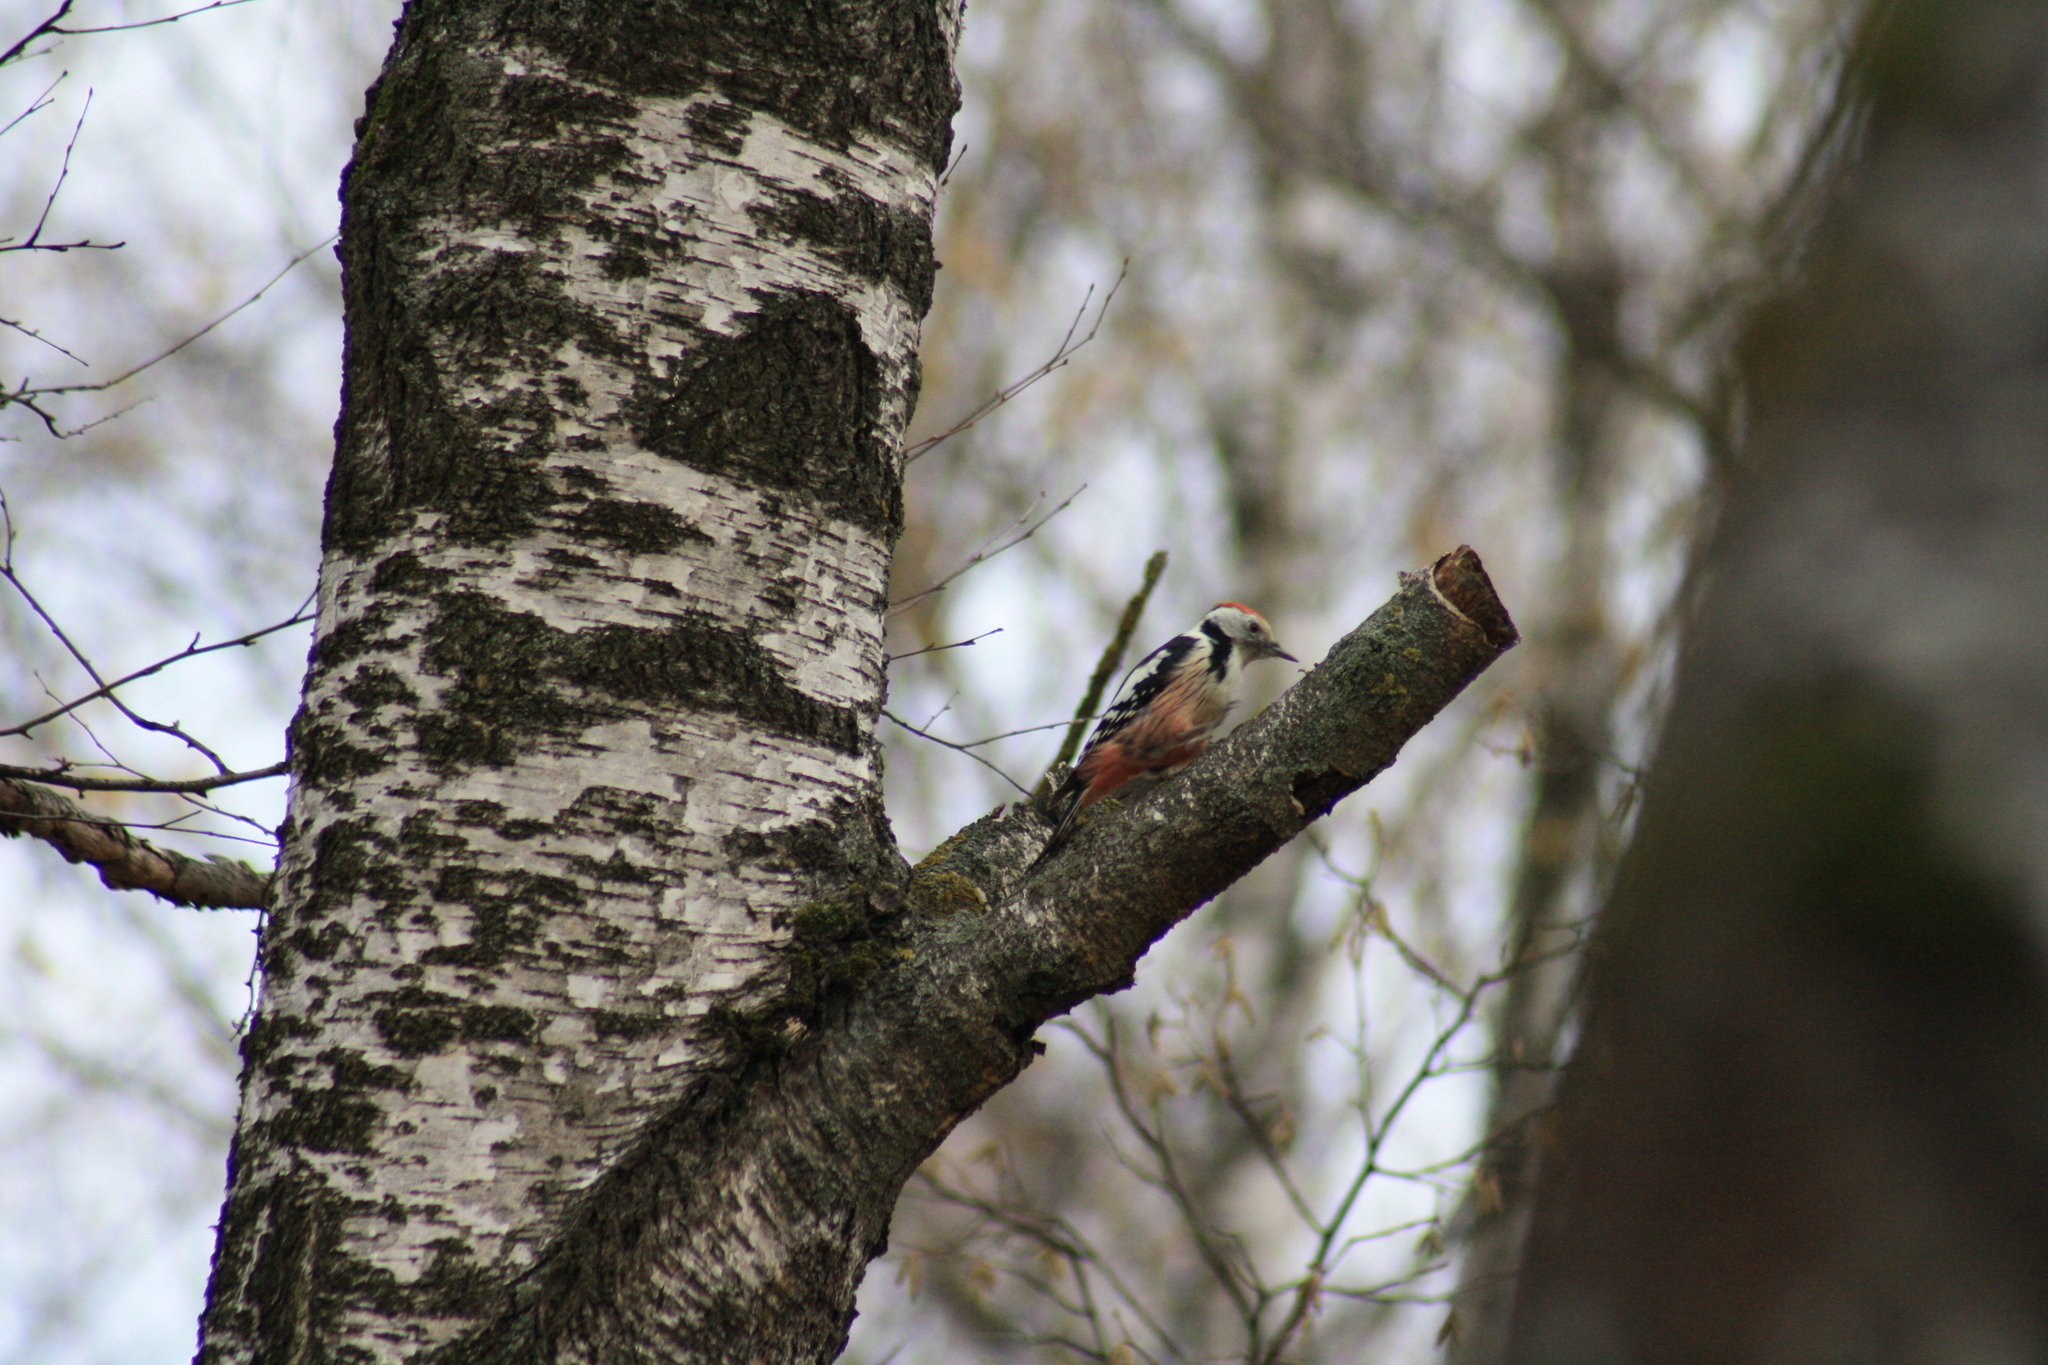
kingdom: Animalia
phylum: Chordata
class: Aves
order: Piciformes
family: Picidae
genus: Dendrocoptes
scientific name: Dendrocoptes medius
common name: Middle spotted woodpecker
